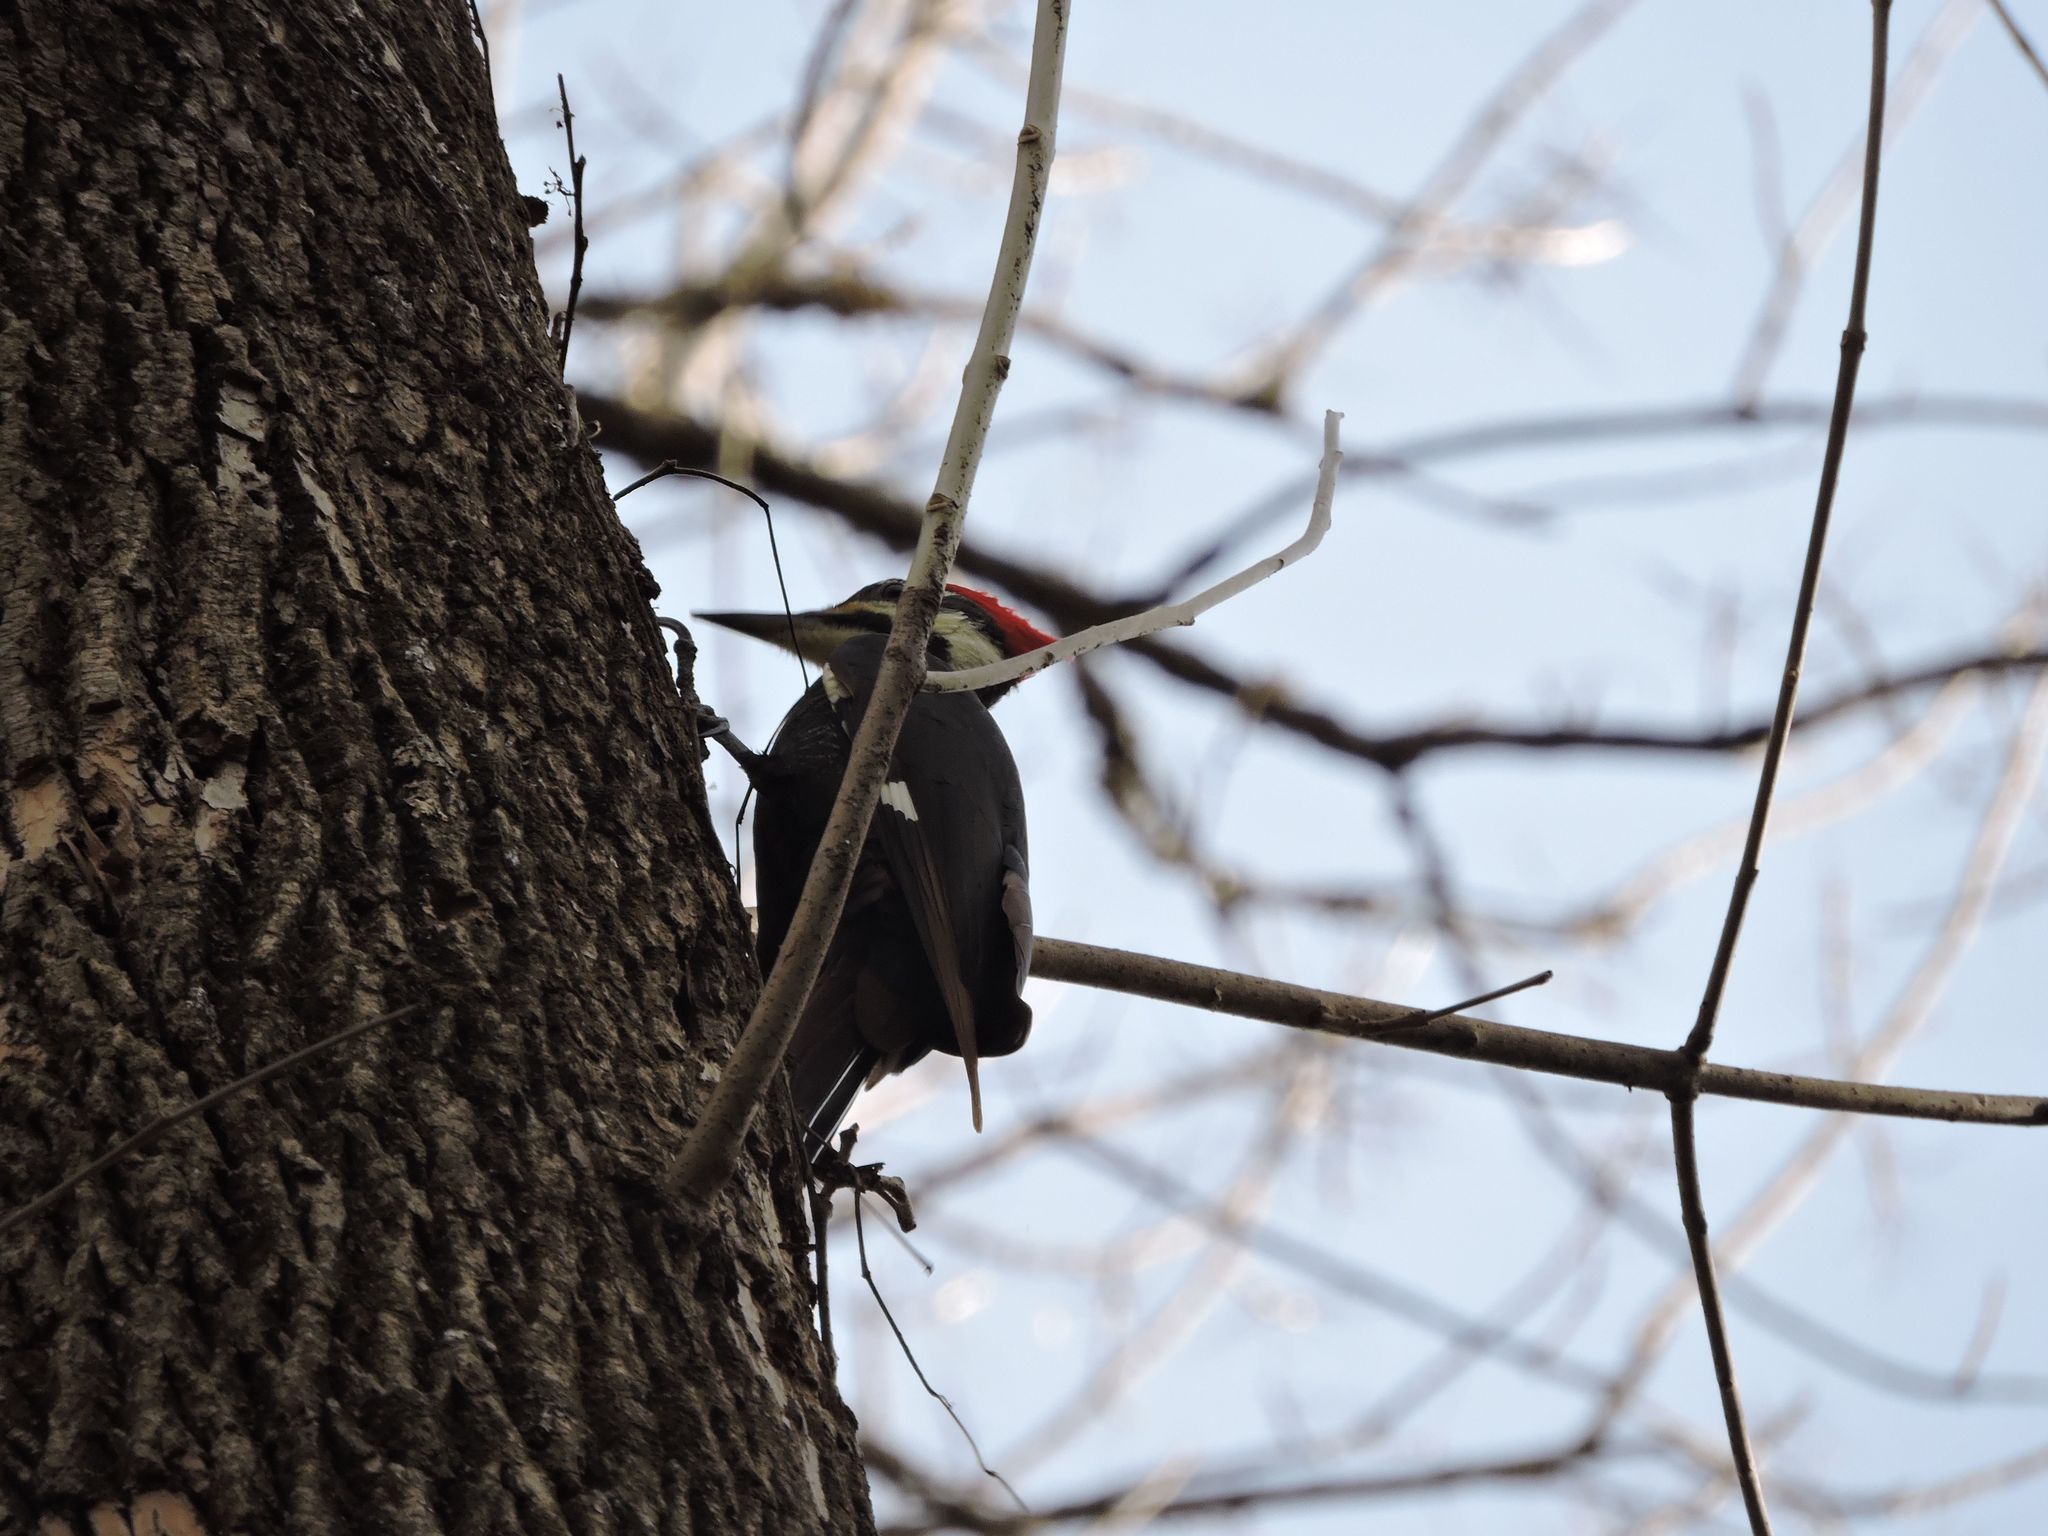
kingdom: Animalia
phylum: Chordata
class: Aves
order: Piciformes
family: Picidae
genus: Dryocopus
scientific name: Dryocopus pileatus
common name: Pileated woodpecker
